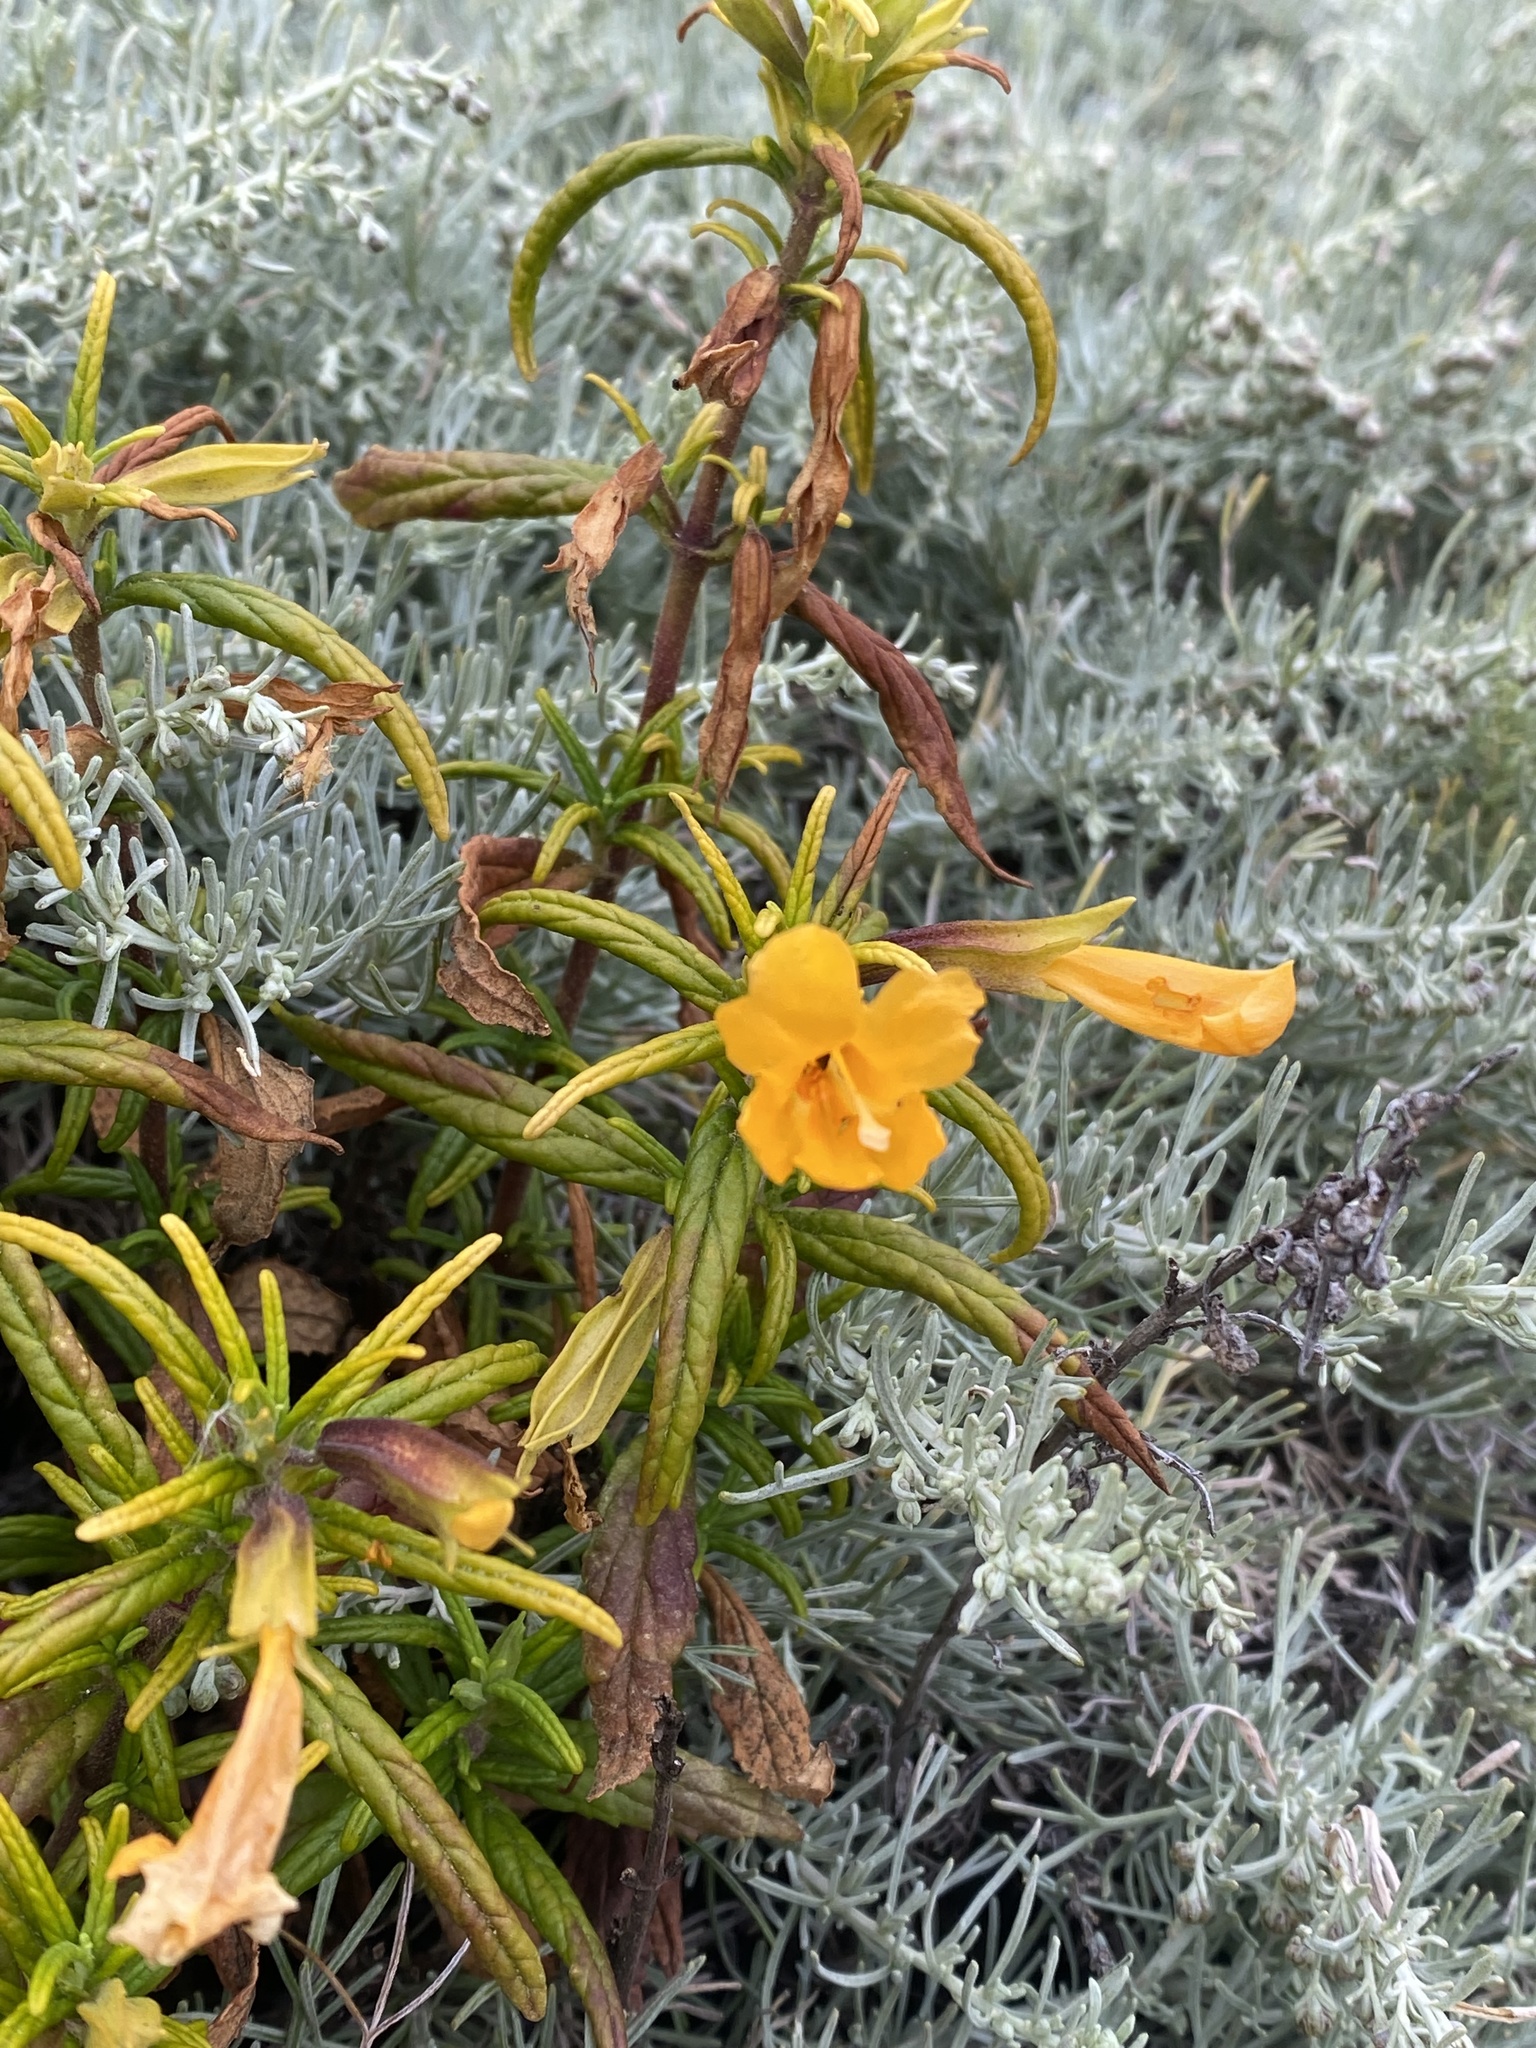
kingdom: Plantae
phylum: Tracheophyta
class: Magnoliopsida
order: Lamiales
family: Phrymaceae
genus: Diplacus
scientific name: Diplacus aurantiacus
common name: Bush monkey-flower
